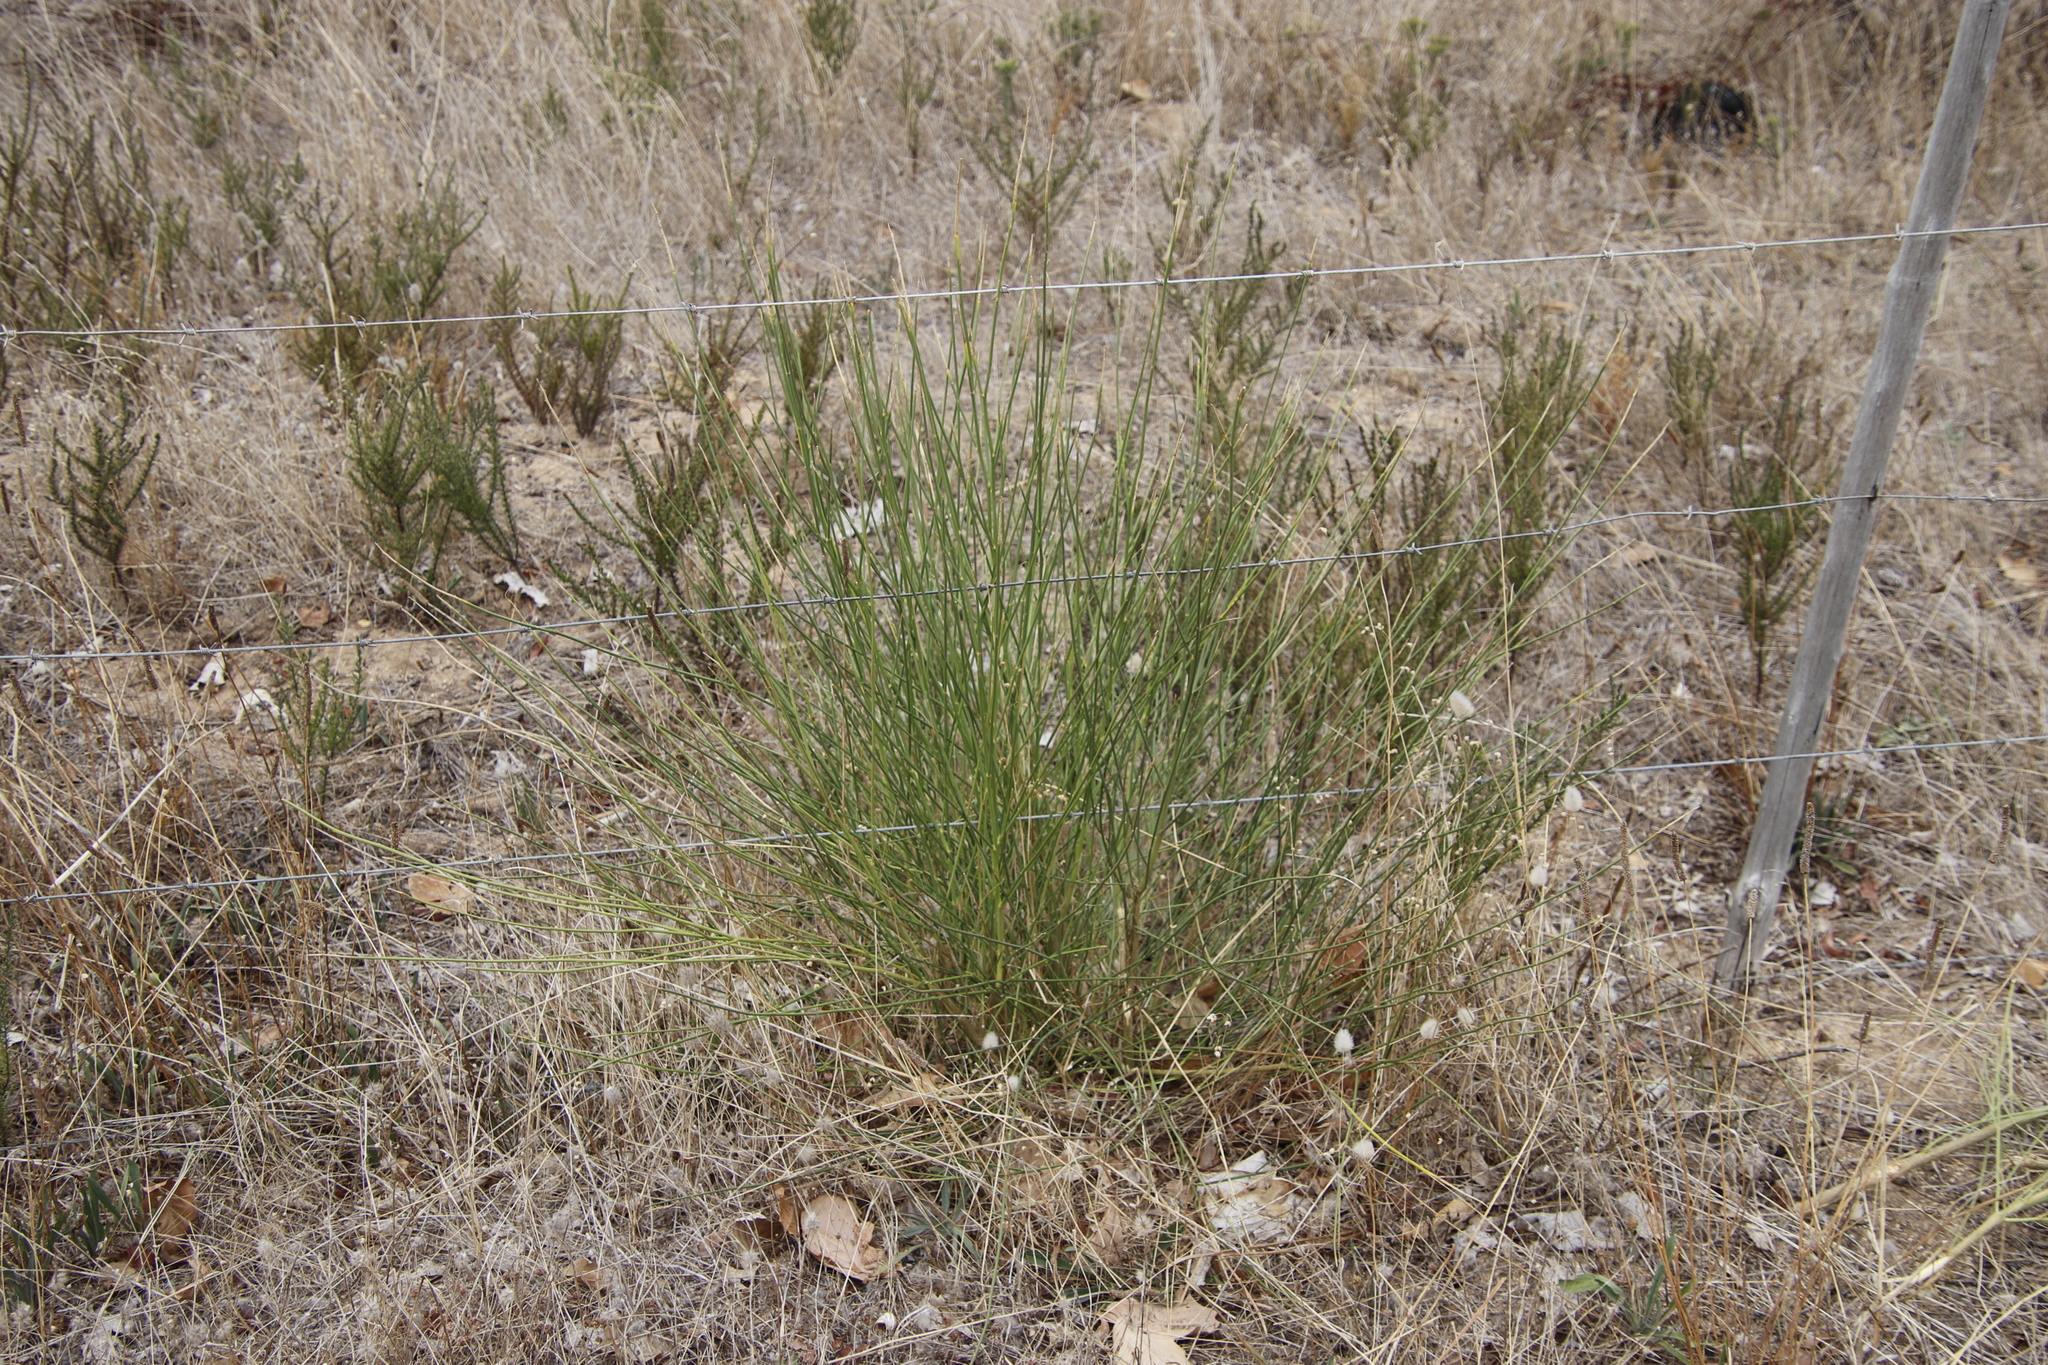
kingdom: Plantae
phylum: Tracheophyta
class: Magnoliopsida
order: Fabales
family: Fabaceae
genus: Spartium
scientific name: Spartium junceum
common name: Spanish broom
